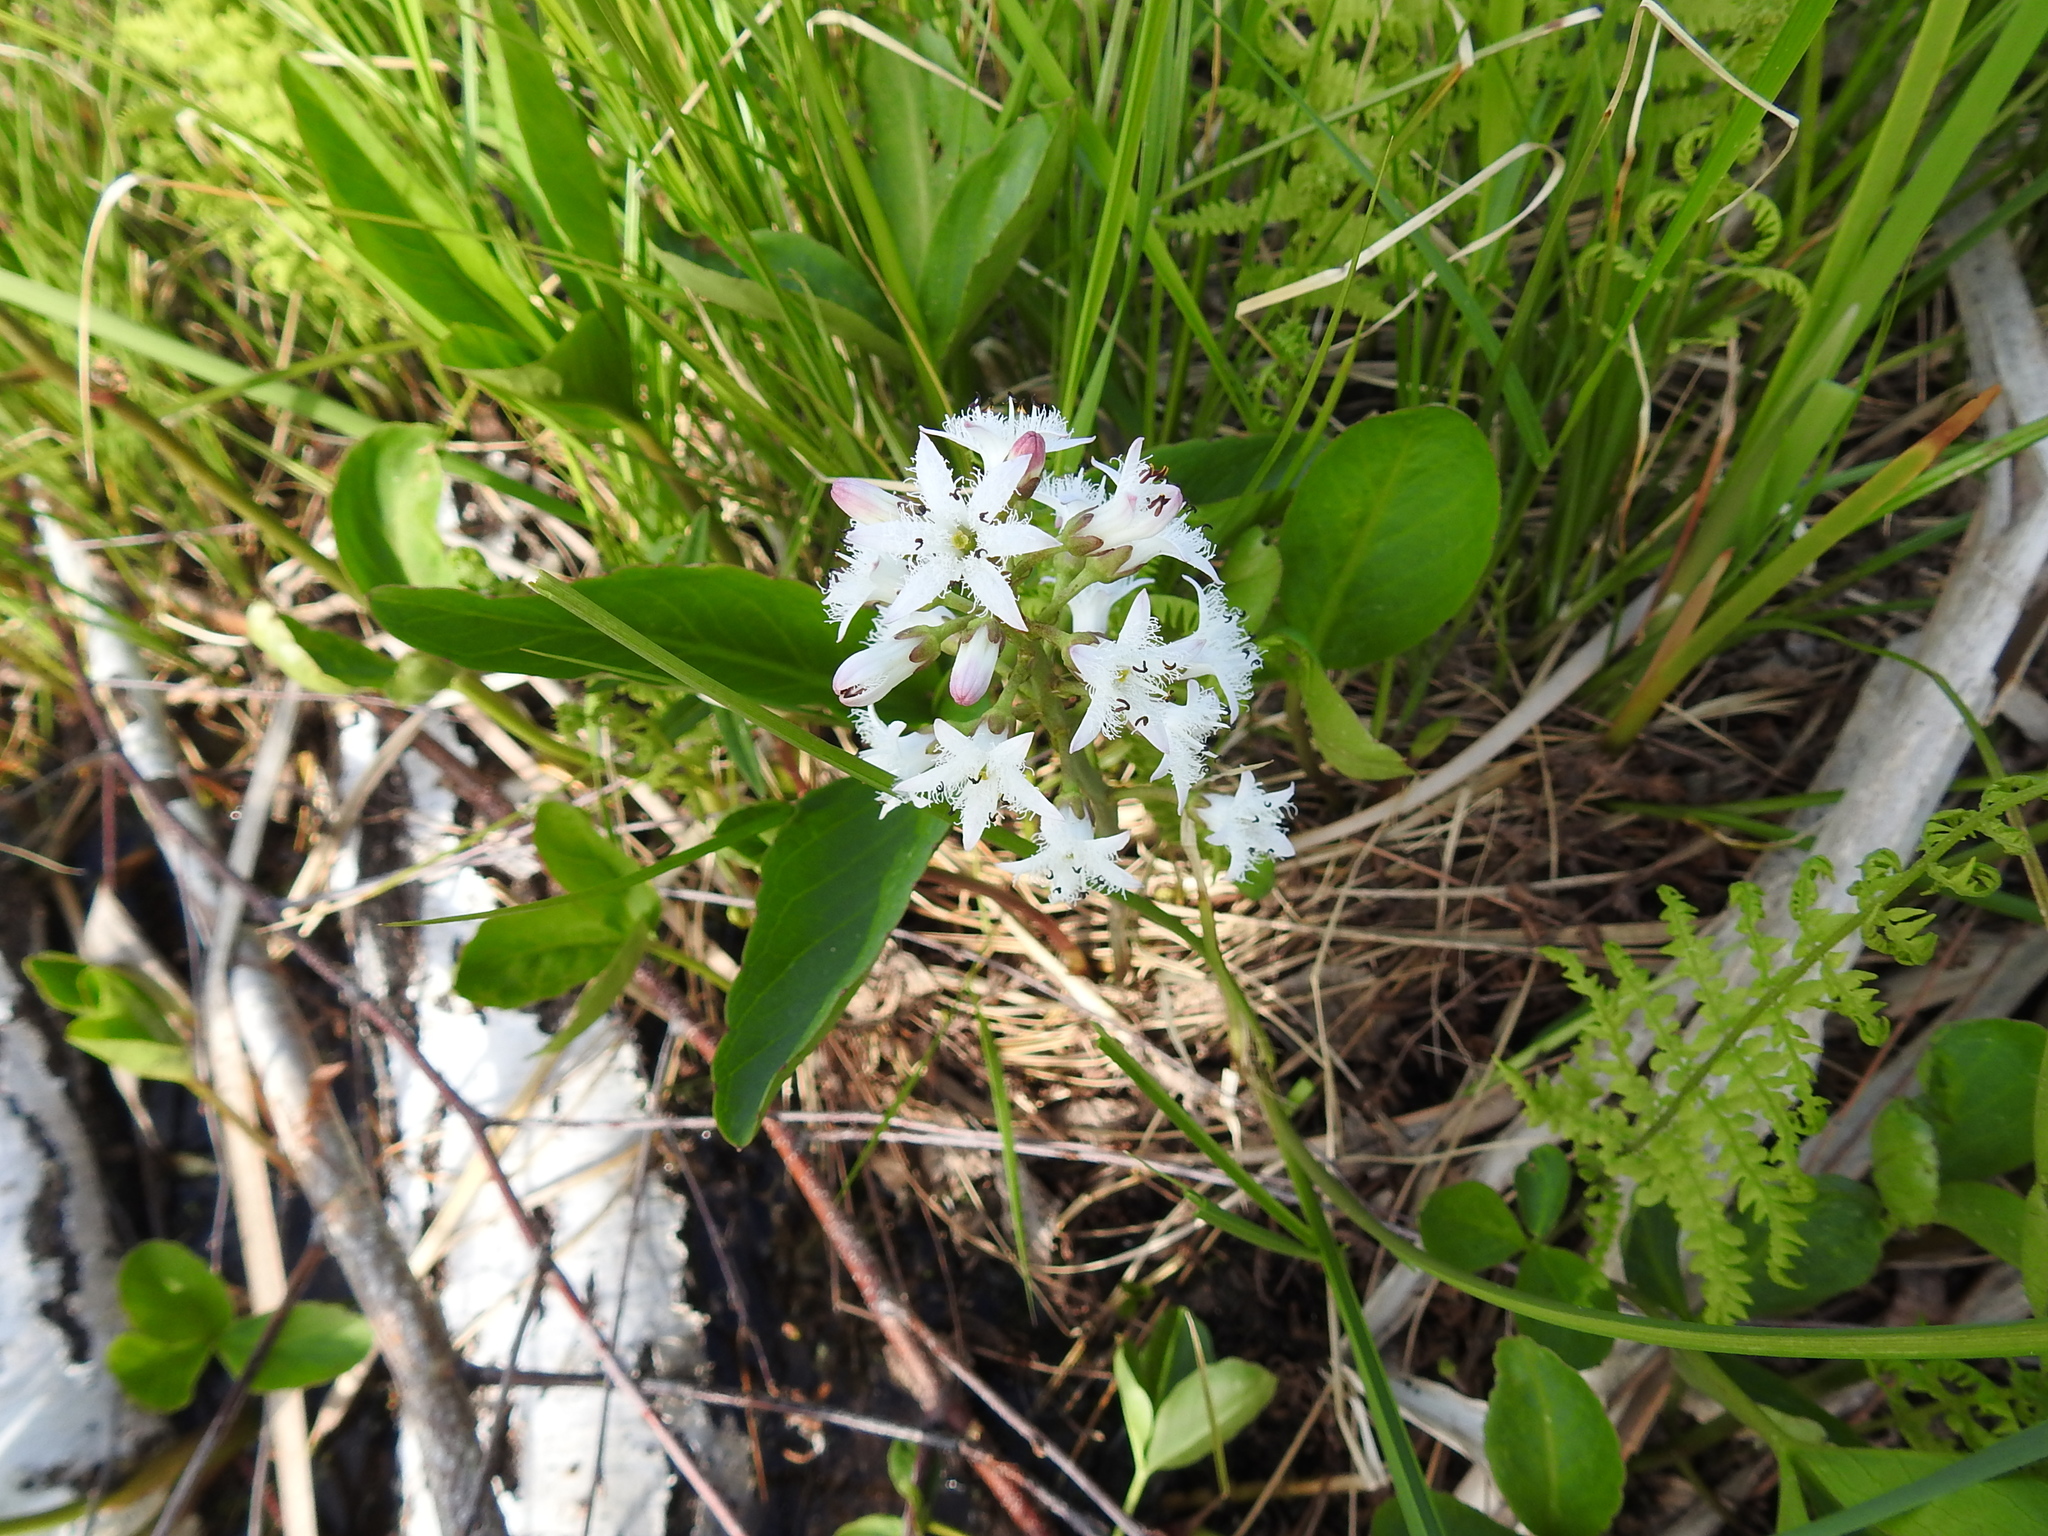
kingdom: Plantae
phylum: Tracheophyta
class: Magnoliopsida
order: Asterales
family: Menyanthaceae
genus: Menyanthes
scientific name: Menyanthes trifoliata
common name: Bogbean
